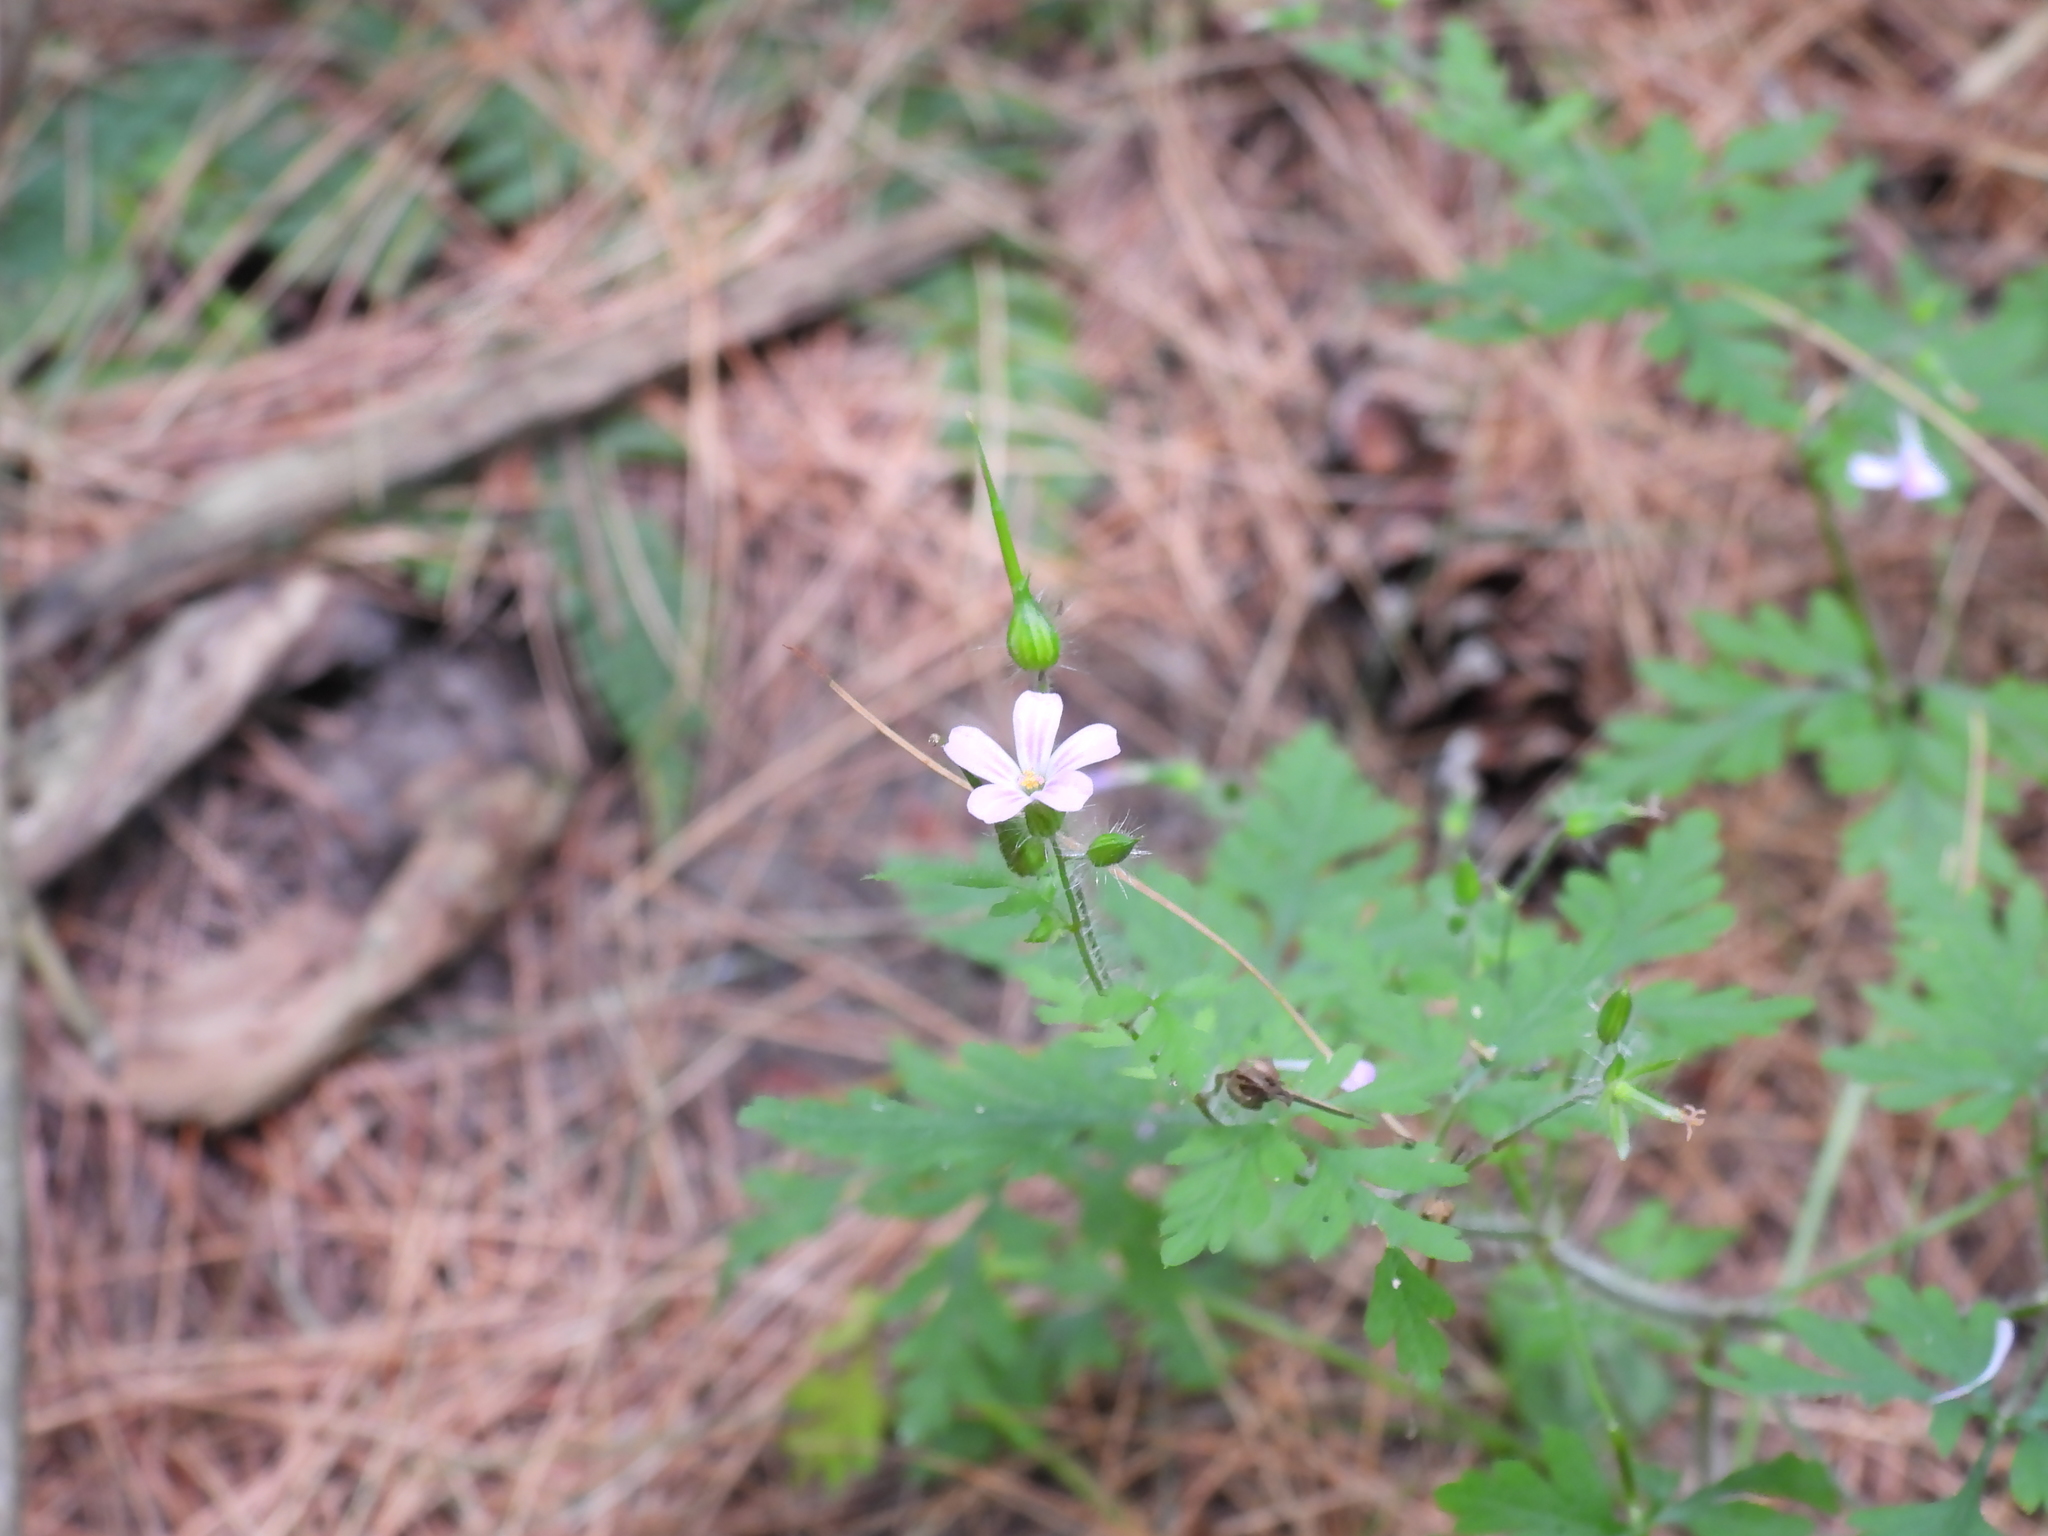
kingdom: Plantae
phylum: Tracheophyta
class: Magnoliopsida
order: Geraniales
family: Geraniaceae
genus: Geranium
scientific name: Geranium robertianum
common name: Herb-robert
